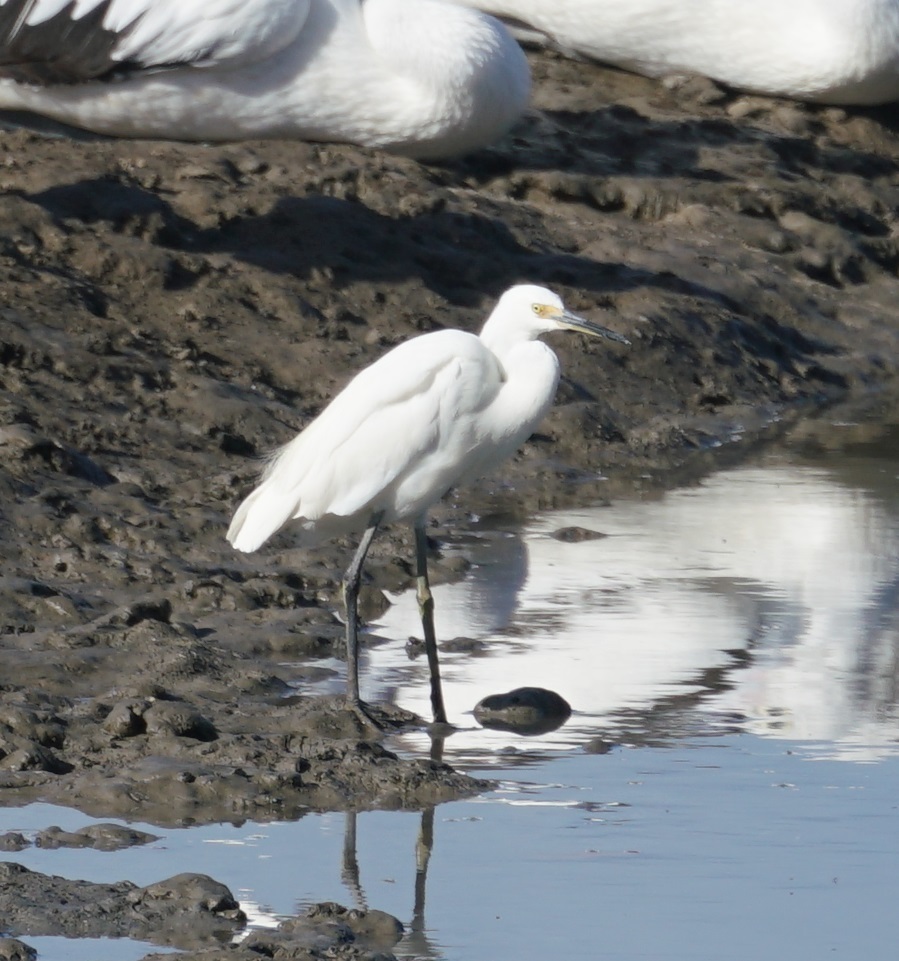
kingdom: Animalia
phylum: Chordata
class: Aves
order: Pelecaniformes
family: Ardeidae
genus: Egretta
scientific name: Egretta garzetta
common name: Little egret
